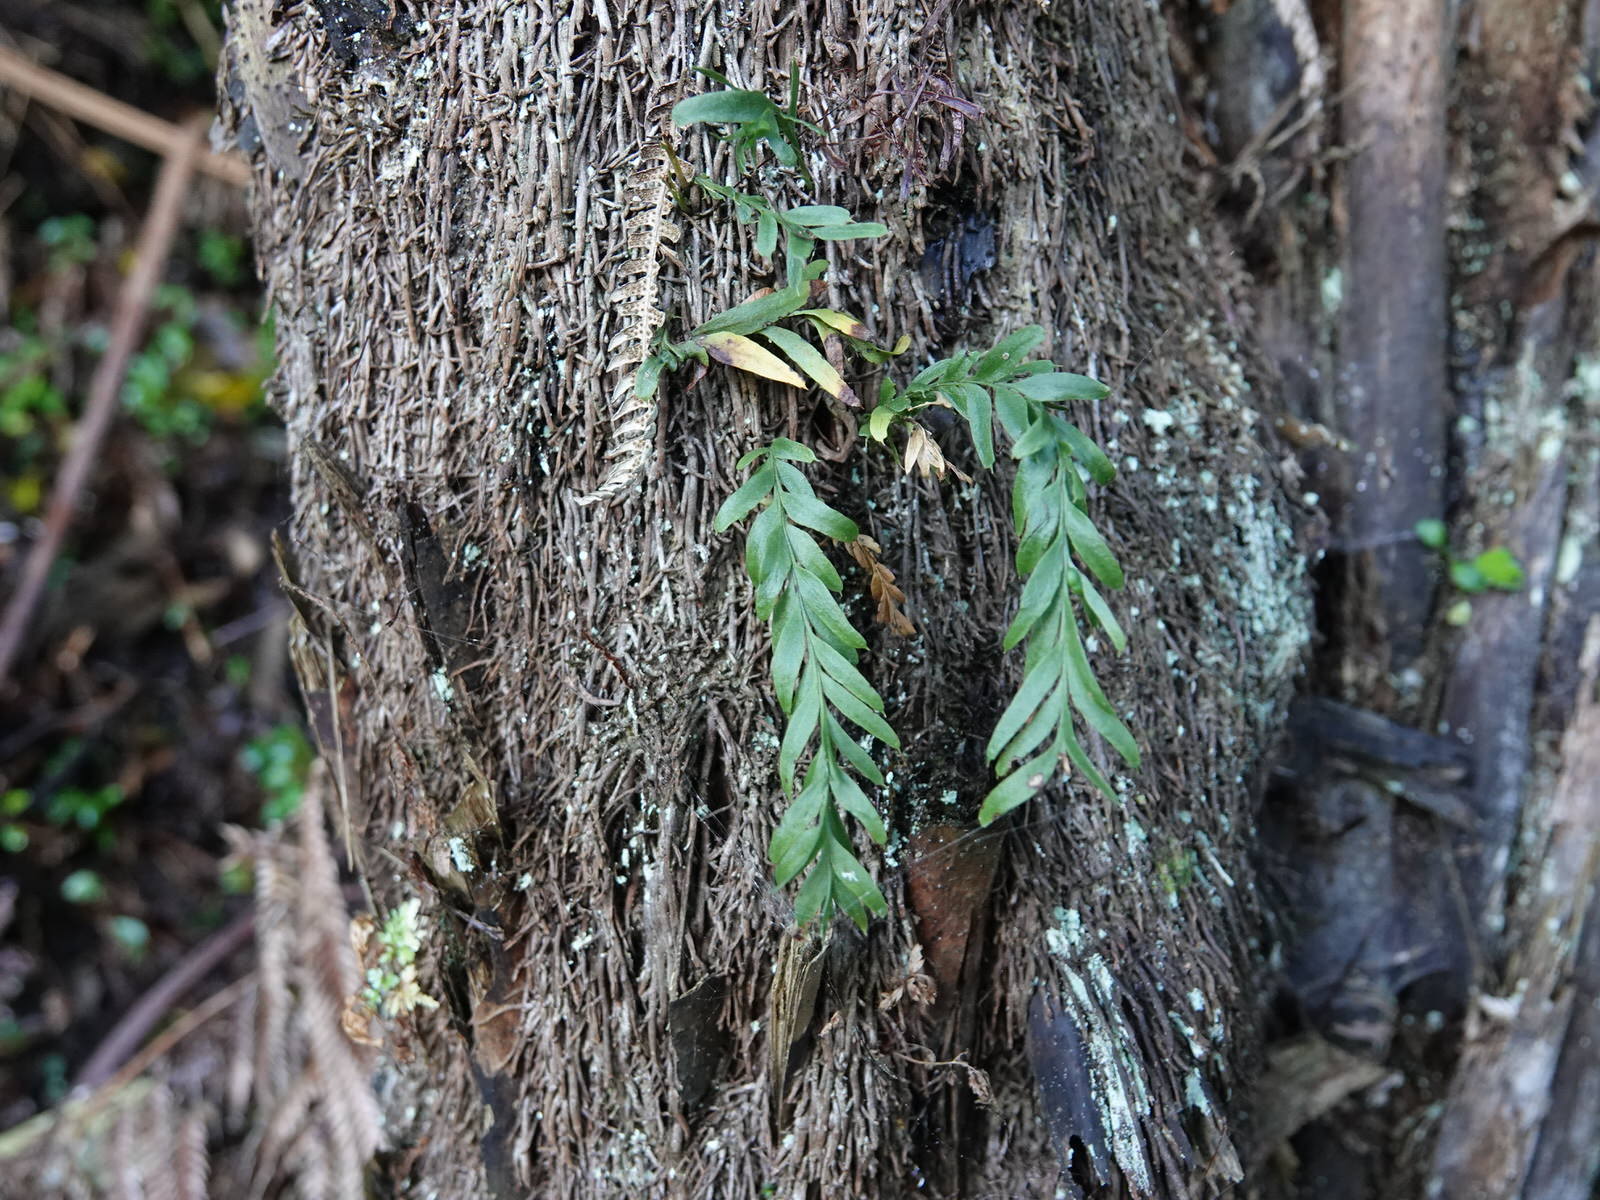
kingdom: Plantae
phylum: Tracheophyta
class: Polypodiopsida
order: Psilotales
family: Psilotaceae
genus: Tmesipteris
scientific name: Tmesipteris elongata
